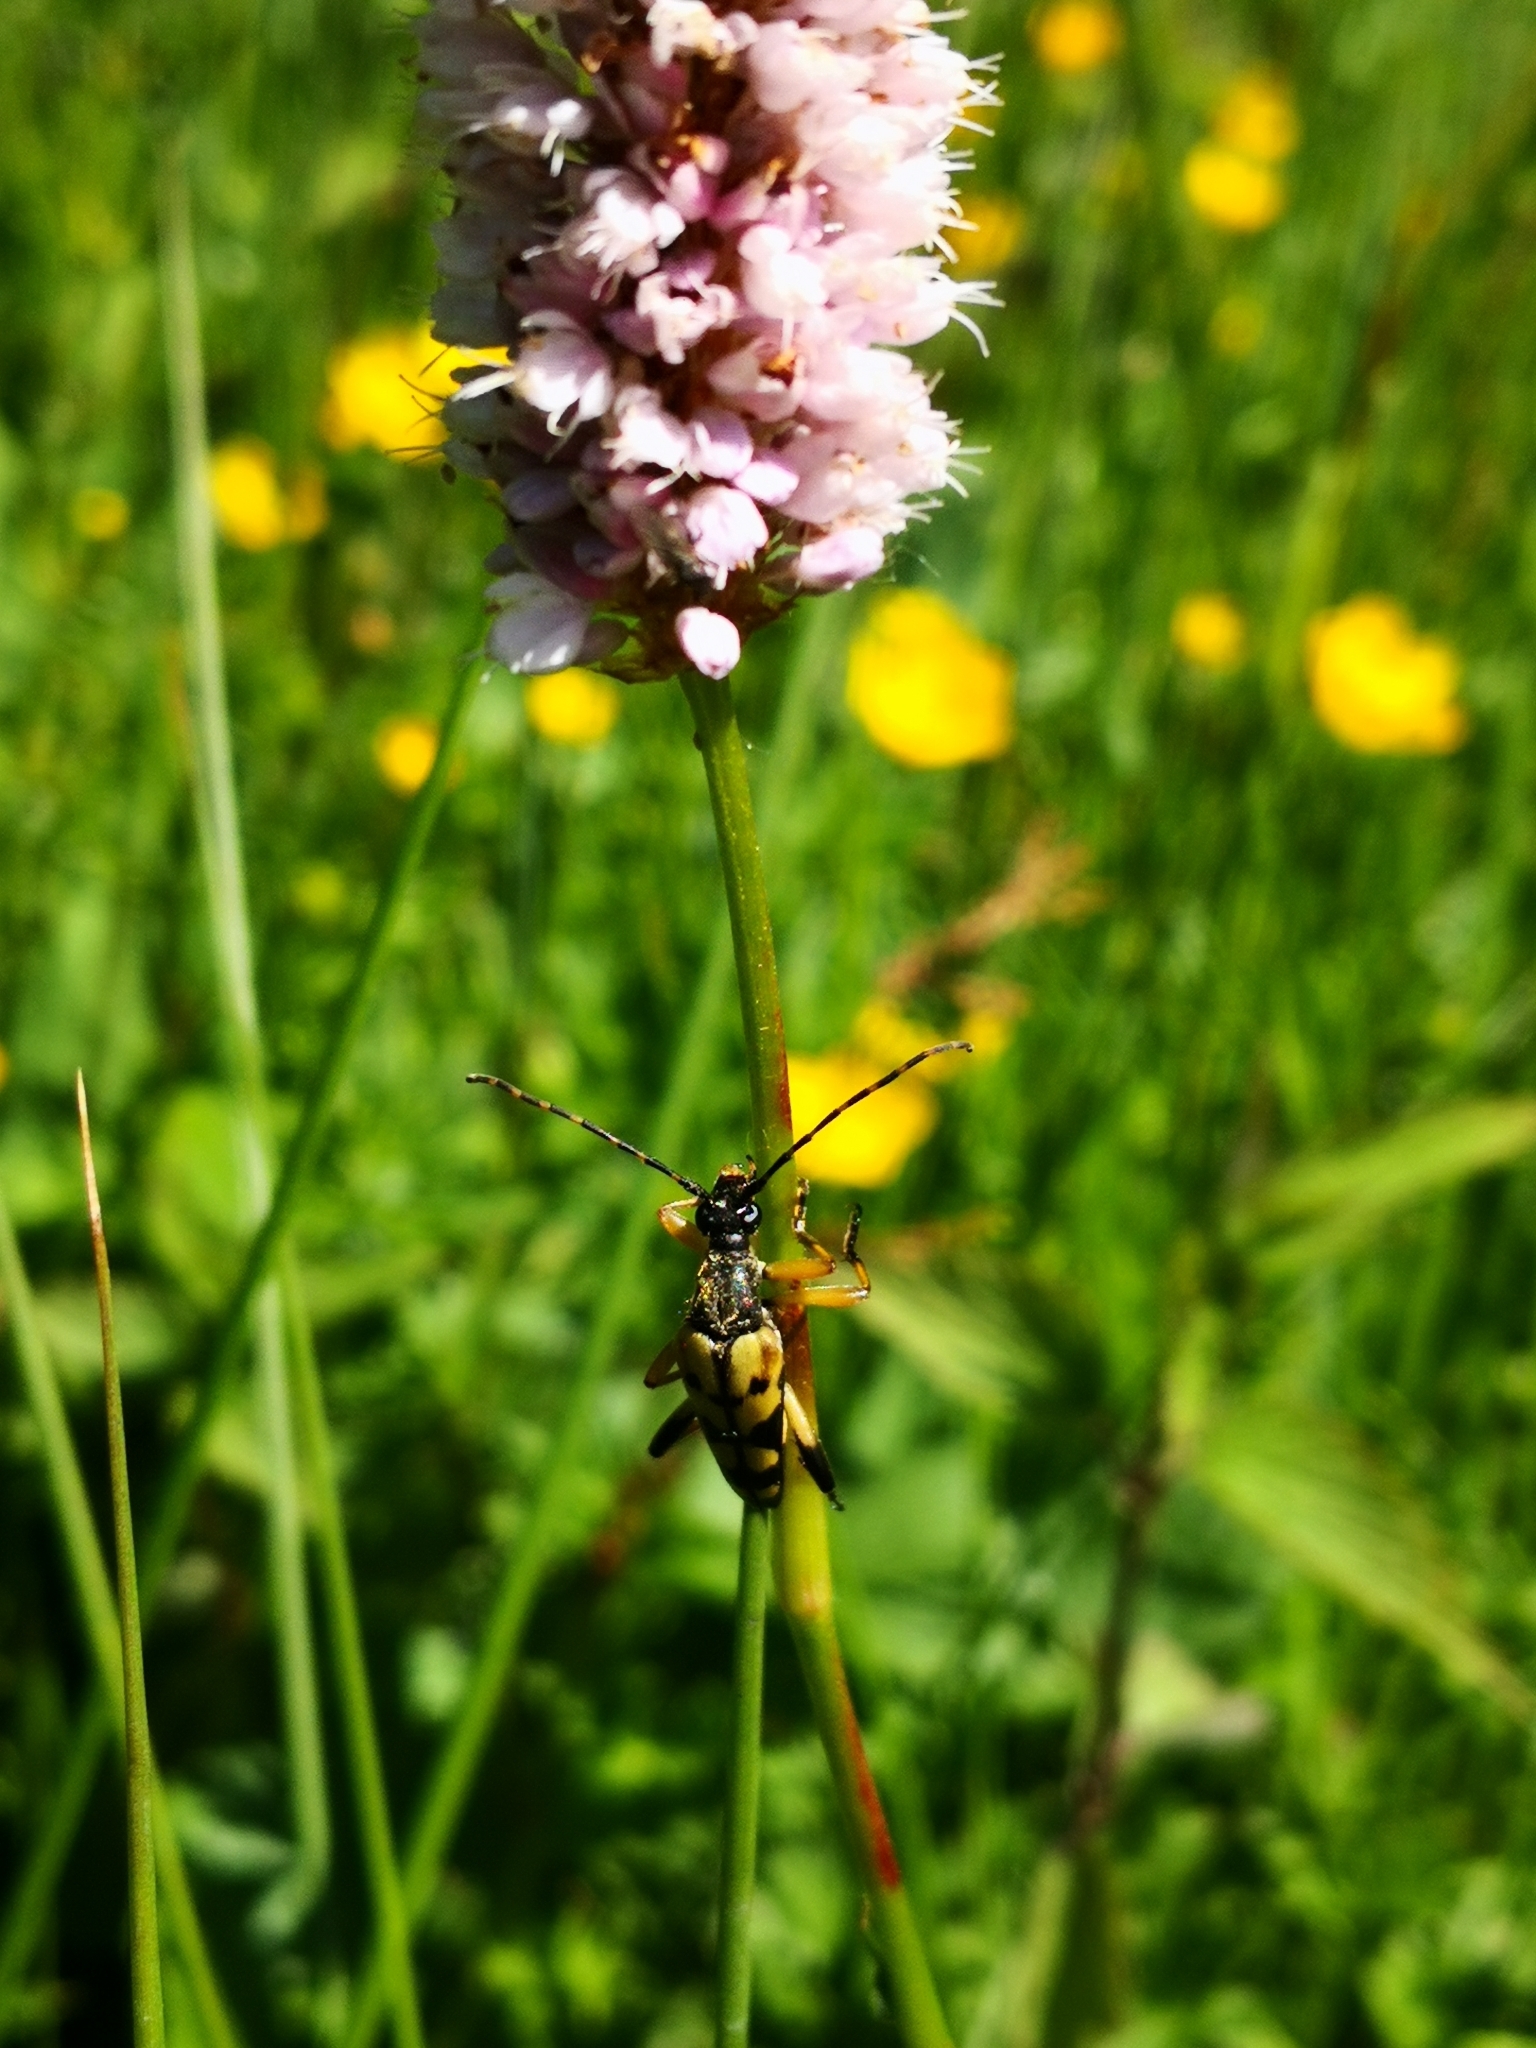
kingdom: Animalia
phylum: Arthropoda
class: Insecta
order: Coleoptera
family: Cerambycidae
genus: Rutpela
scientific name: Rutpela maculata
